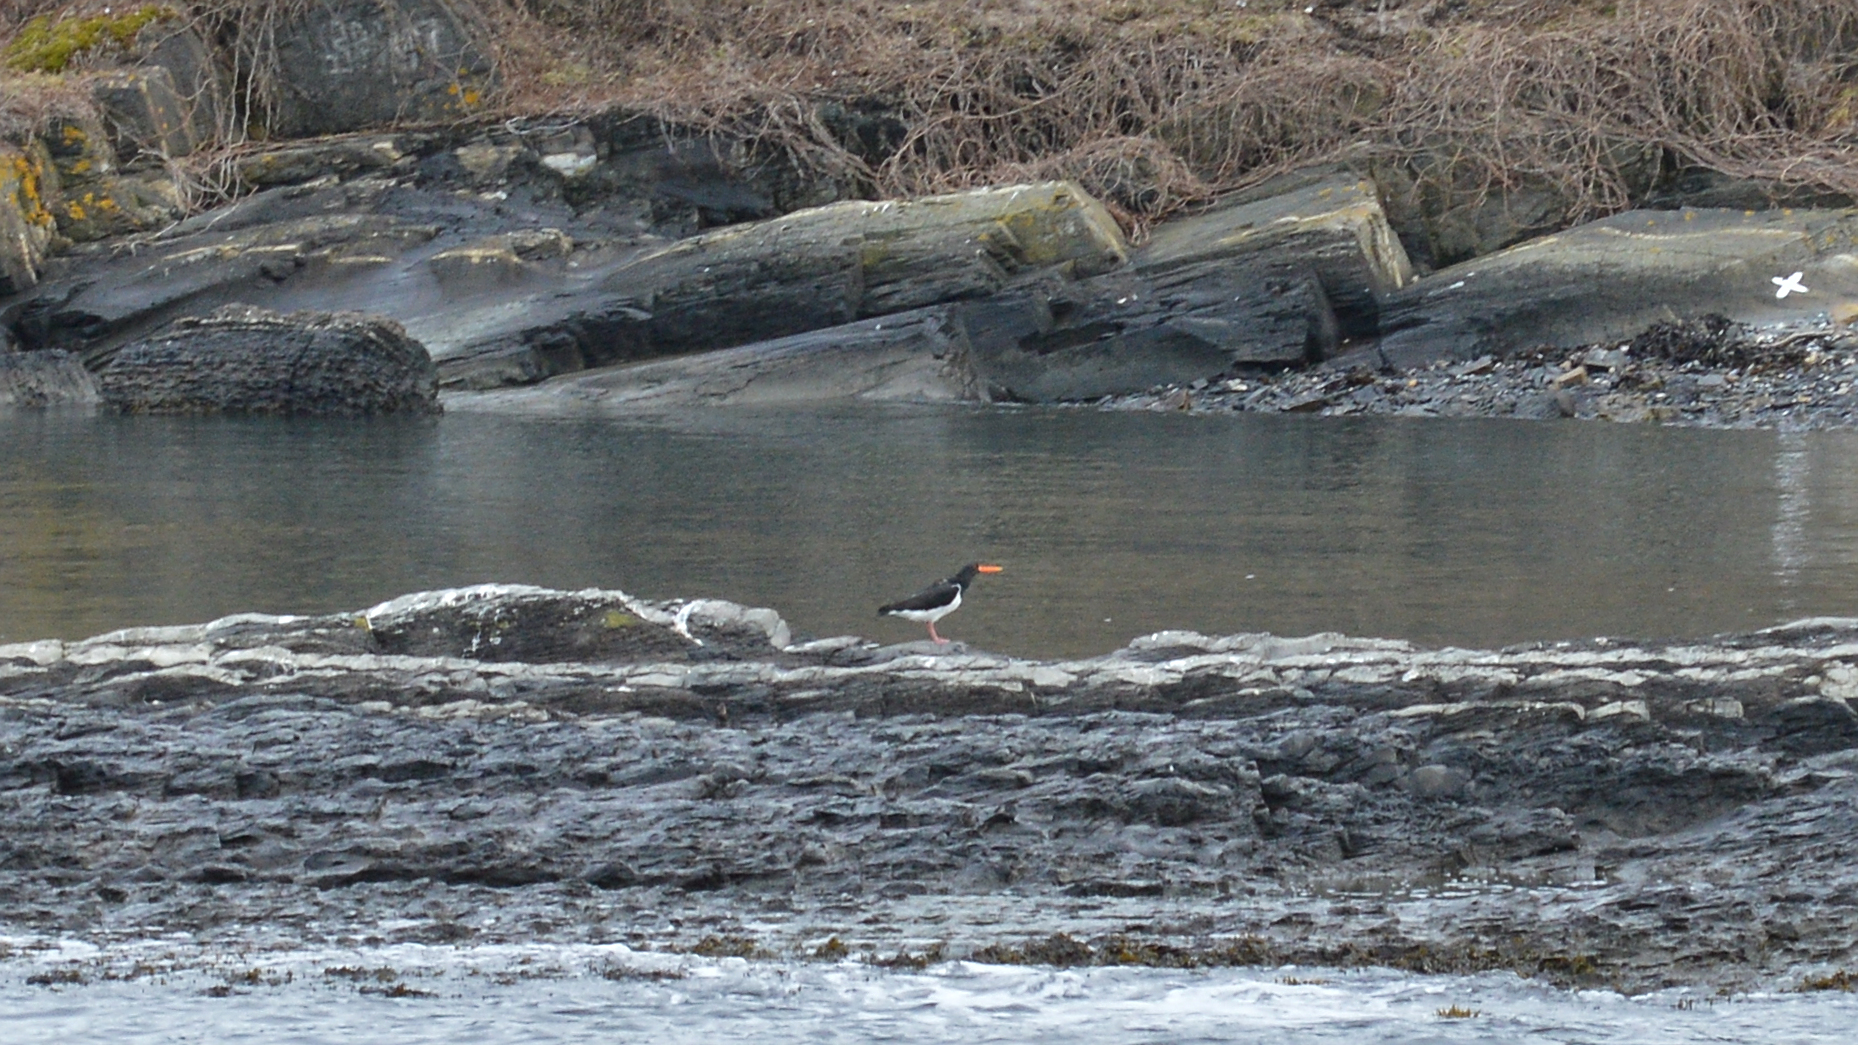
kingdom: Animalia
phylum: Chordata
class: Aves
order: Charadriiformes
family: Haematopodidae
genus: Haematopus
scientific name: Haematopus ostralegus
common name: Eurasian oystercatcher
